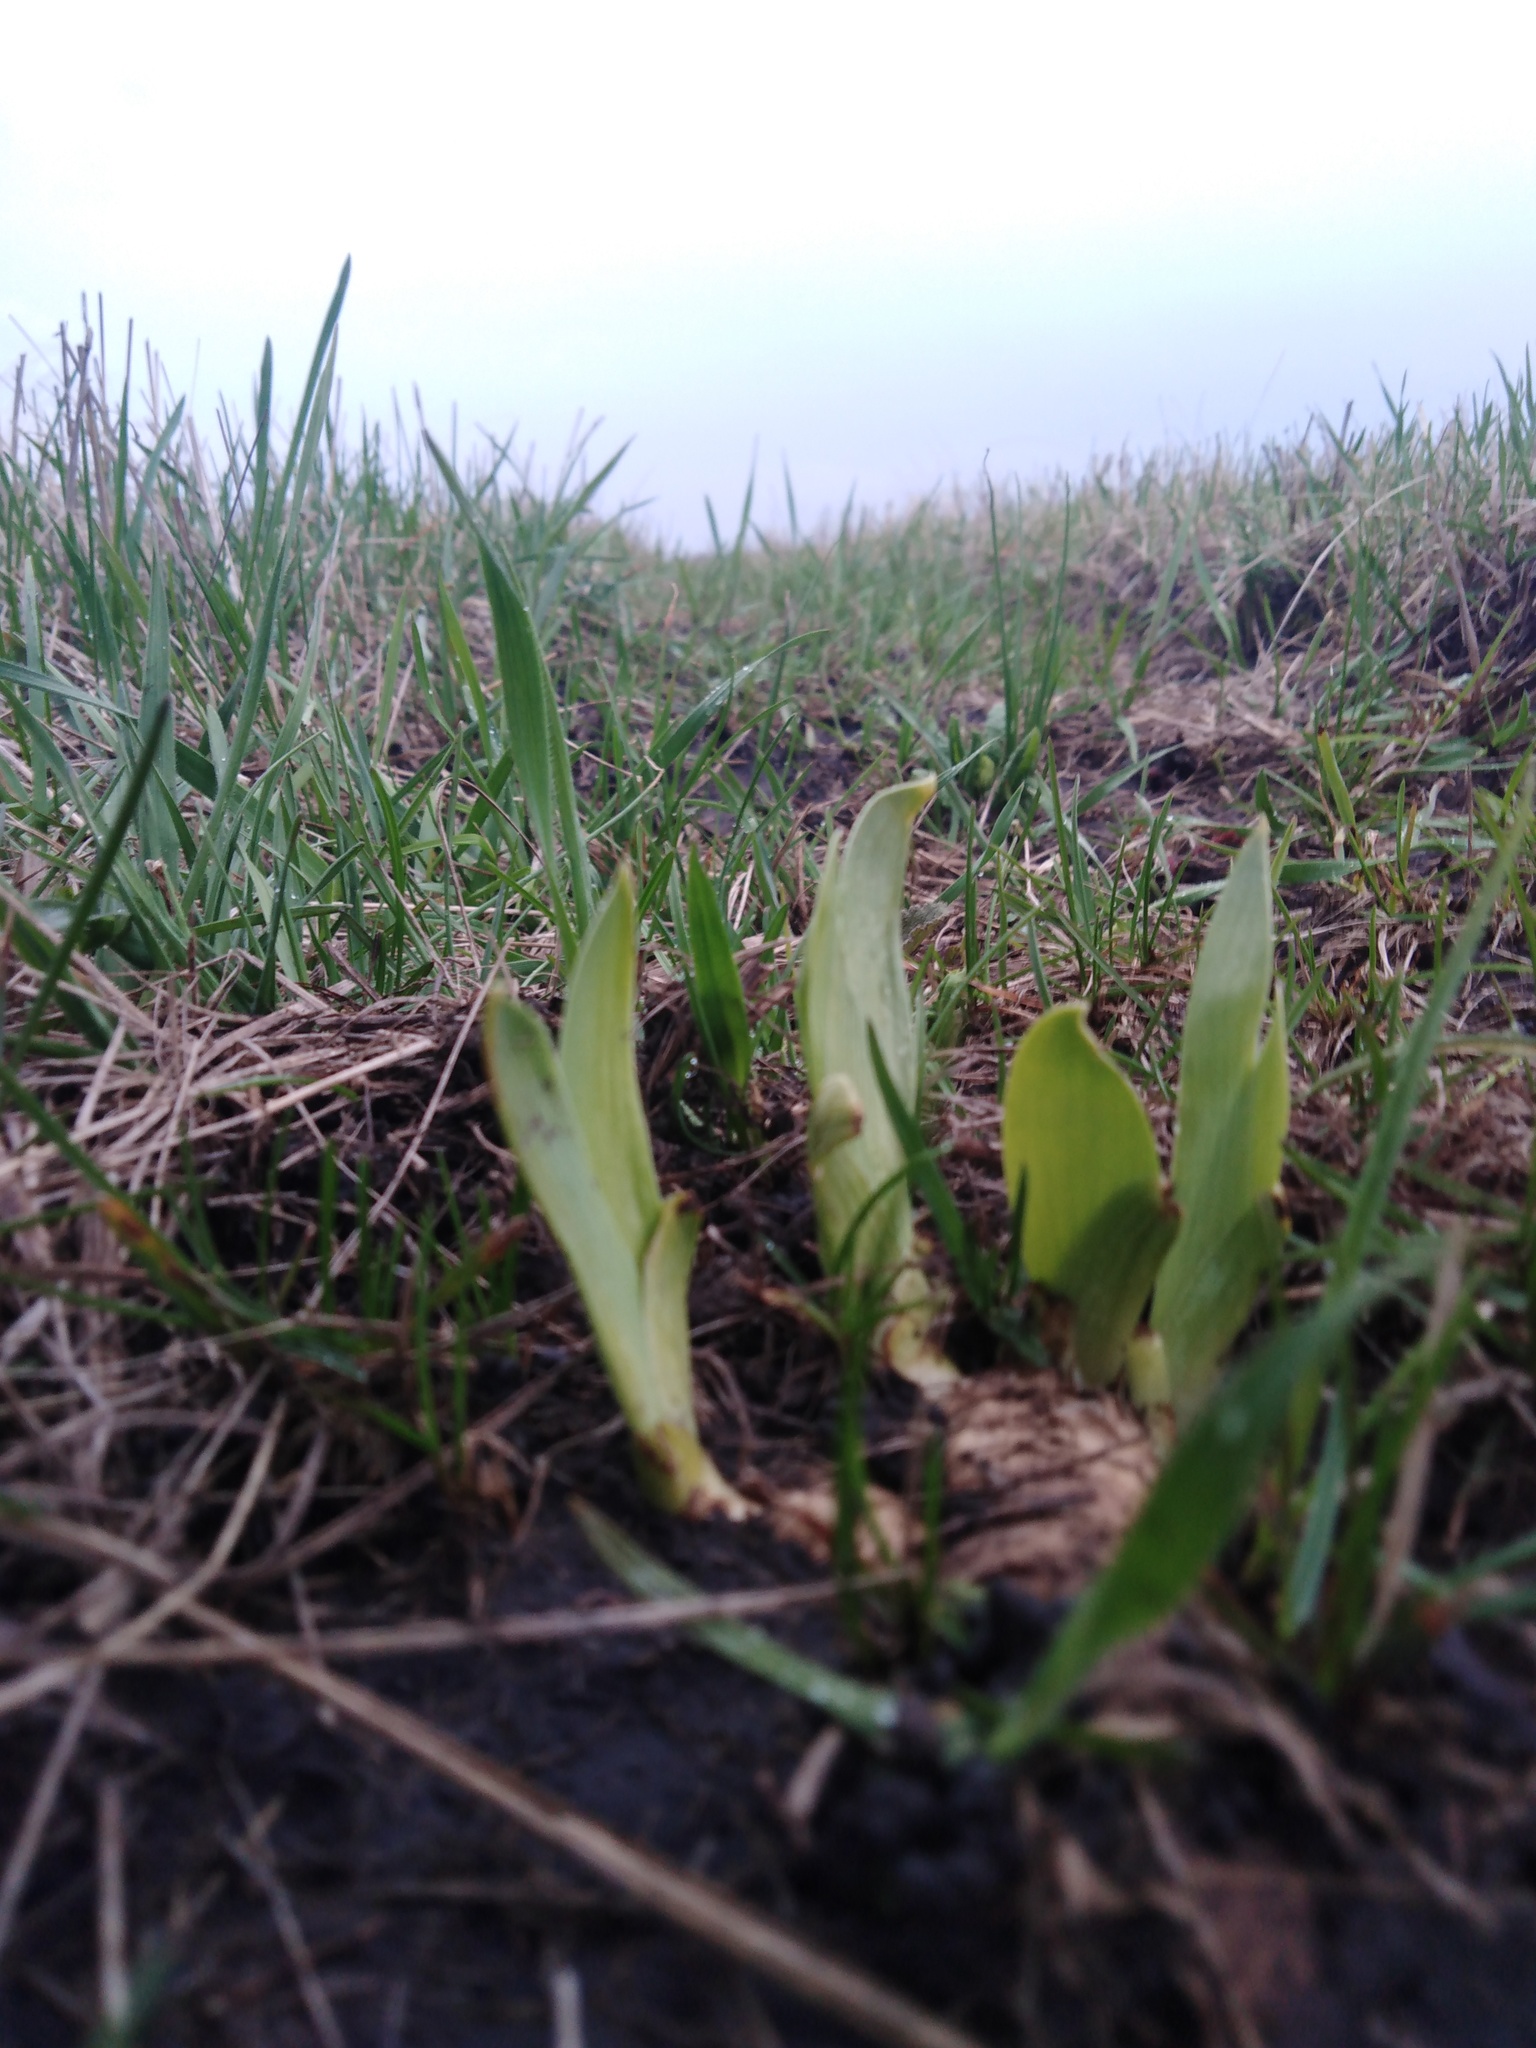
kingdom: Plantae
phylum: Tracheophyta
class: Liliopsida
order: Asparagales
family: Iridaceae
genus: Iris
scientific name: Iris aphylla
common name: Stool iris
